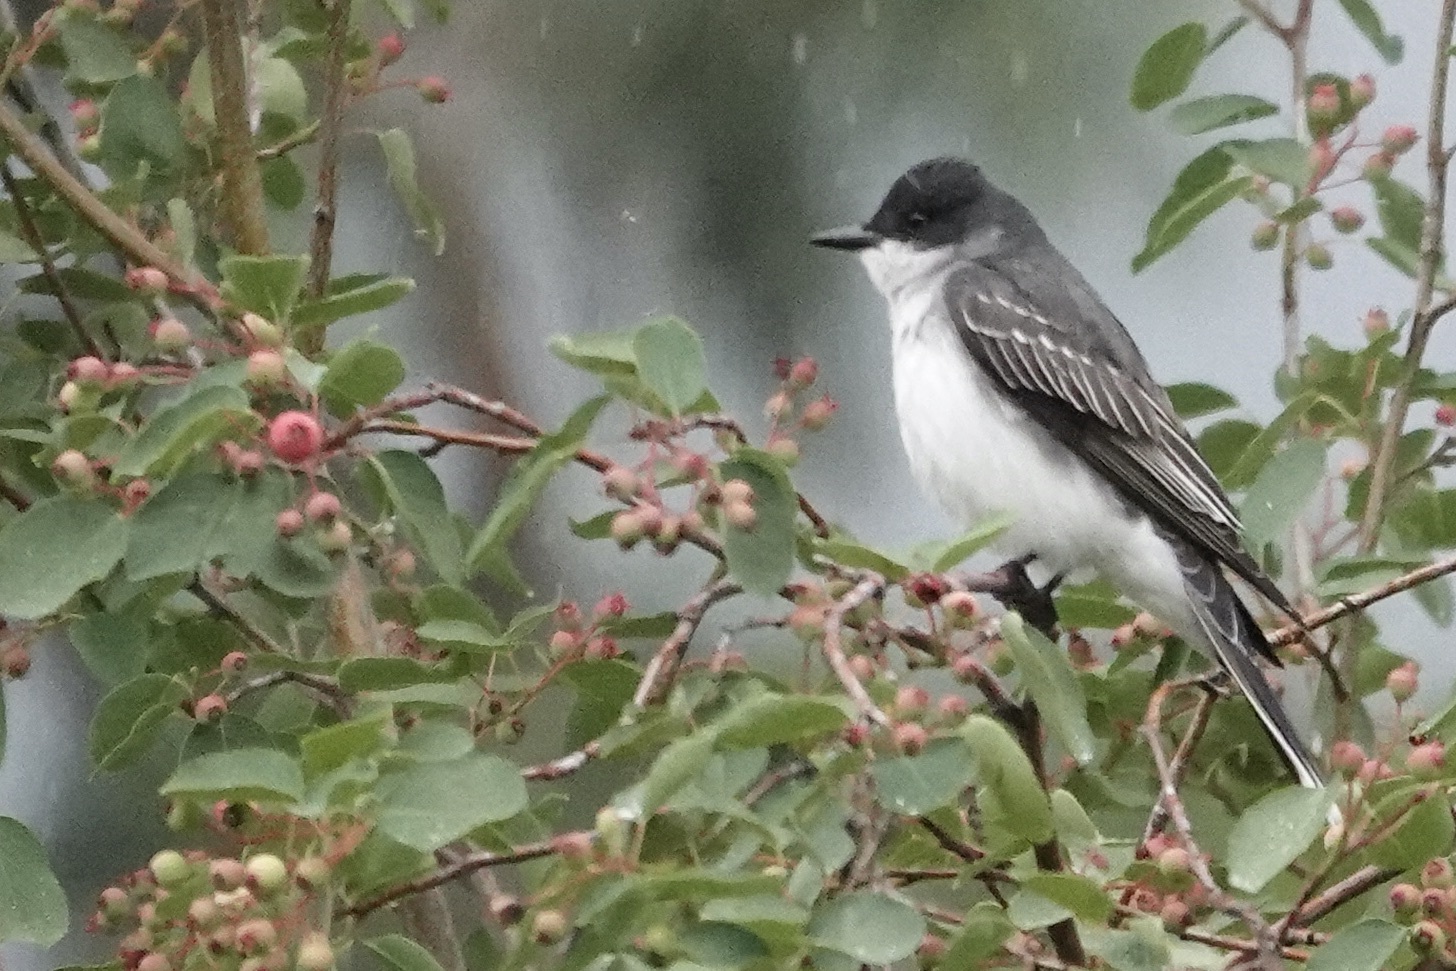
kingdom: Animalia
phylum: Chordata
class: Aves
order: Passeriformes
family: Tyrannidae
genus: Tyrannus
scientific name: Tyrannus tyrannus
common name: Eastern kingbird
